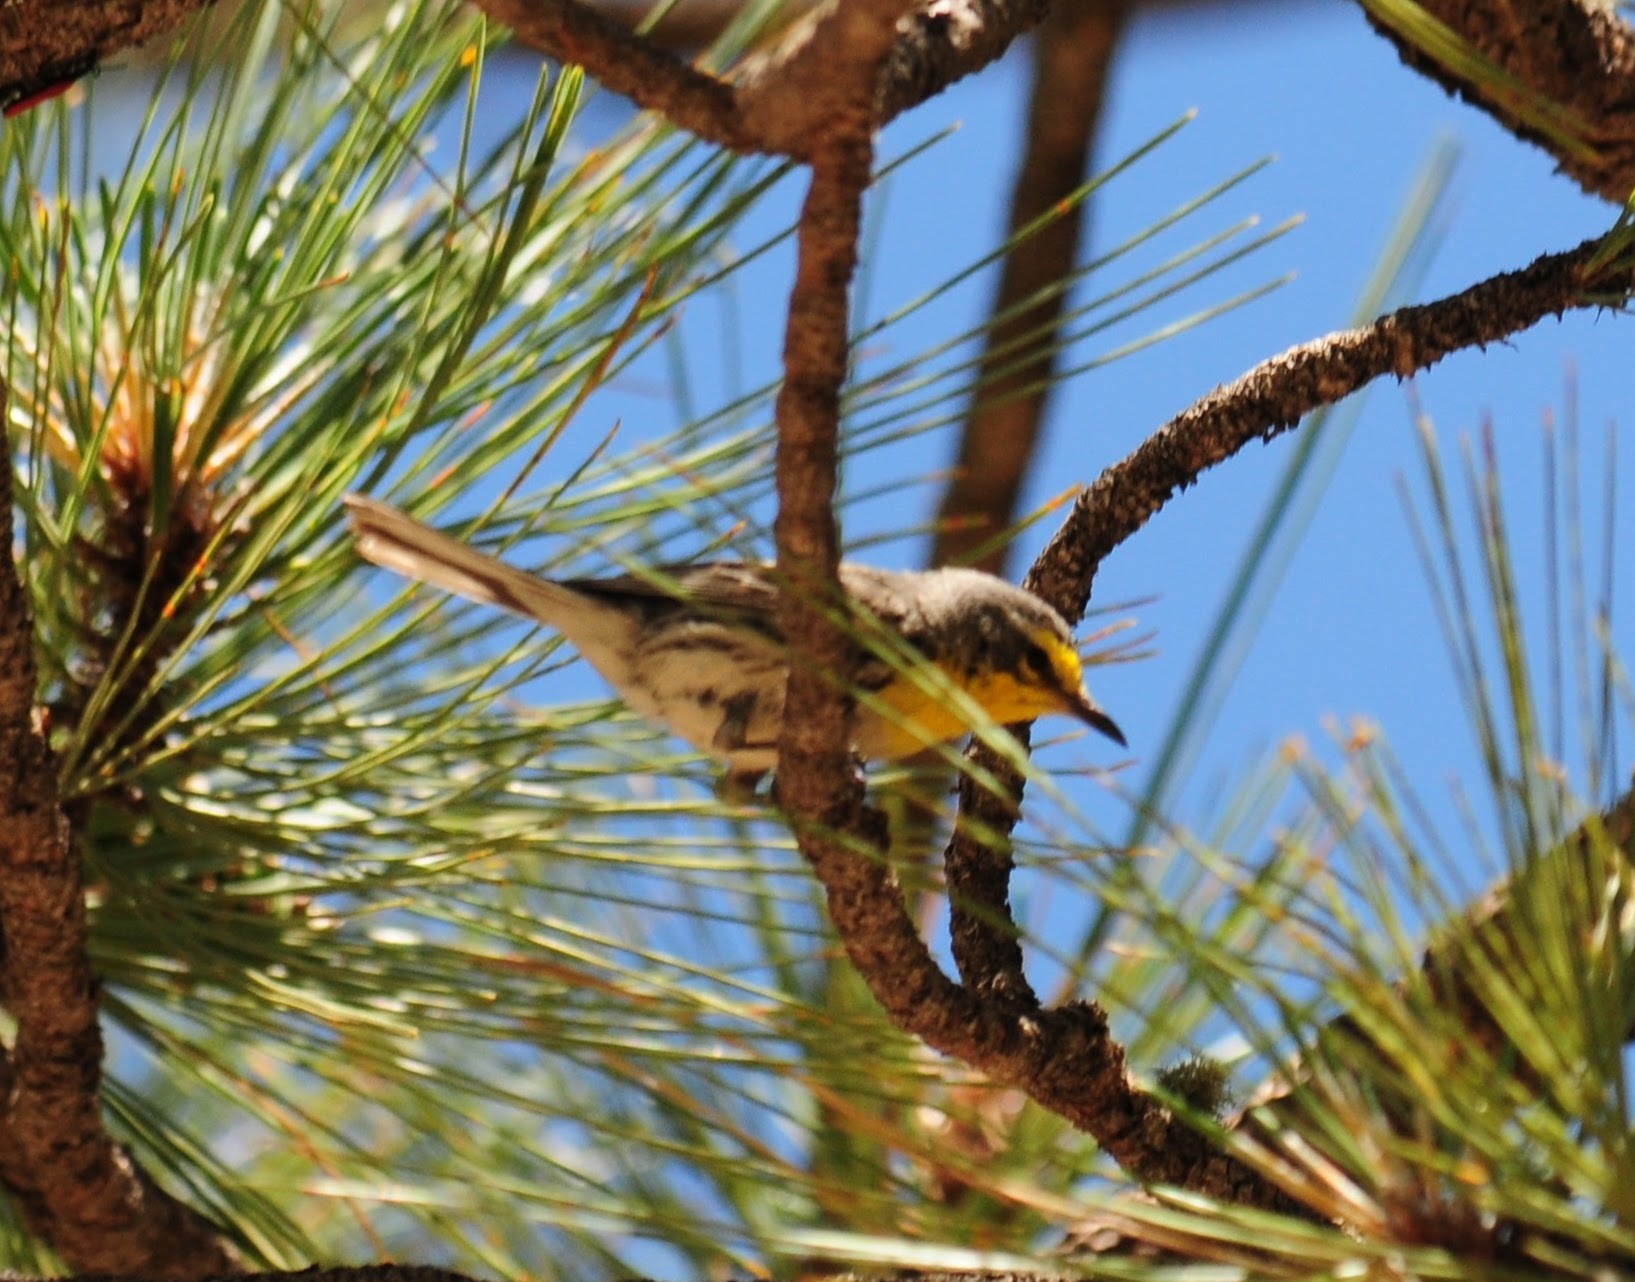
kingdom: Animalia
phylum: Chordata
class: Aves
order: Passeriformes
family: Parulidae
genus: Setophaga
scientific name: Setophaga graciae
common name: Grace's warbler
